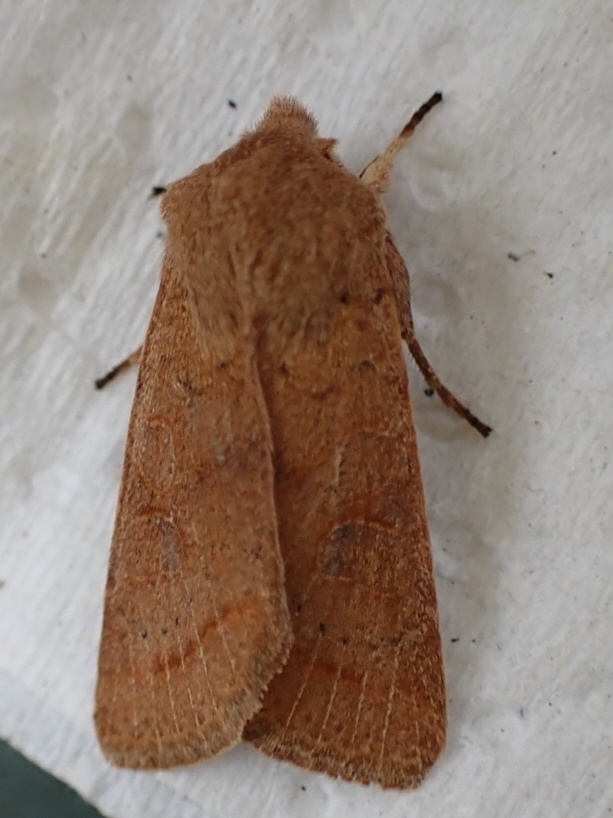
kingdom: Animalia
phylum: Arthropoda
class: Insecta
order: Lepidoptera
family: Noctuidae
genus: Orthosia
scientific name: Orthosia cerasi
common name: Common quaker
